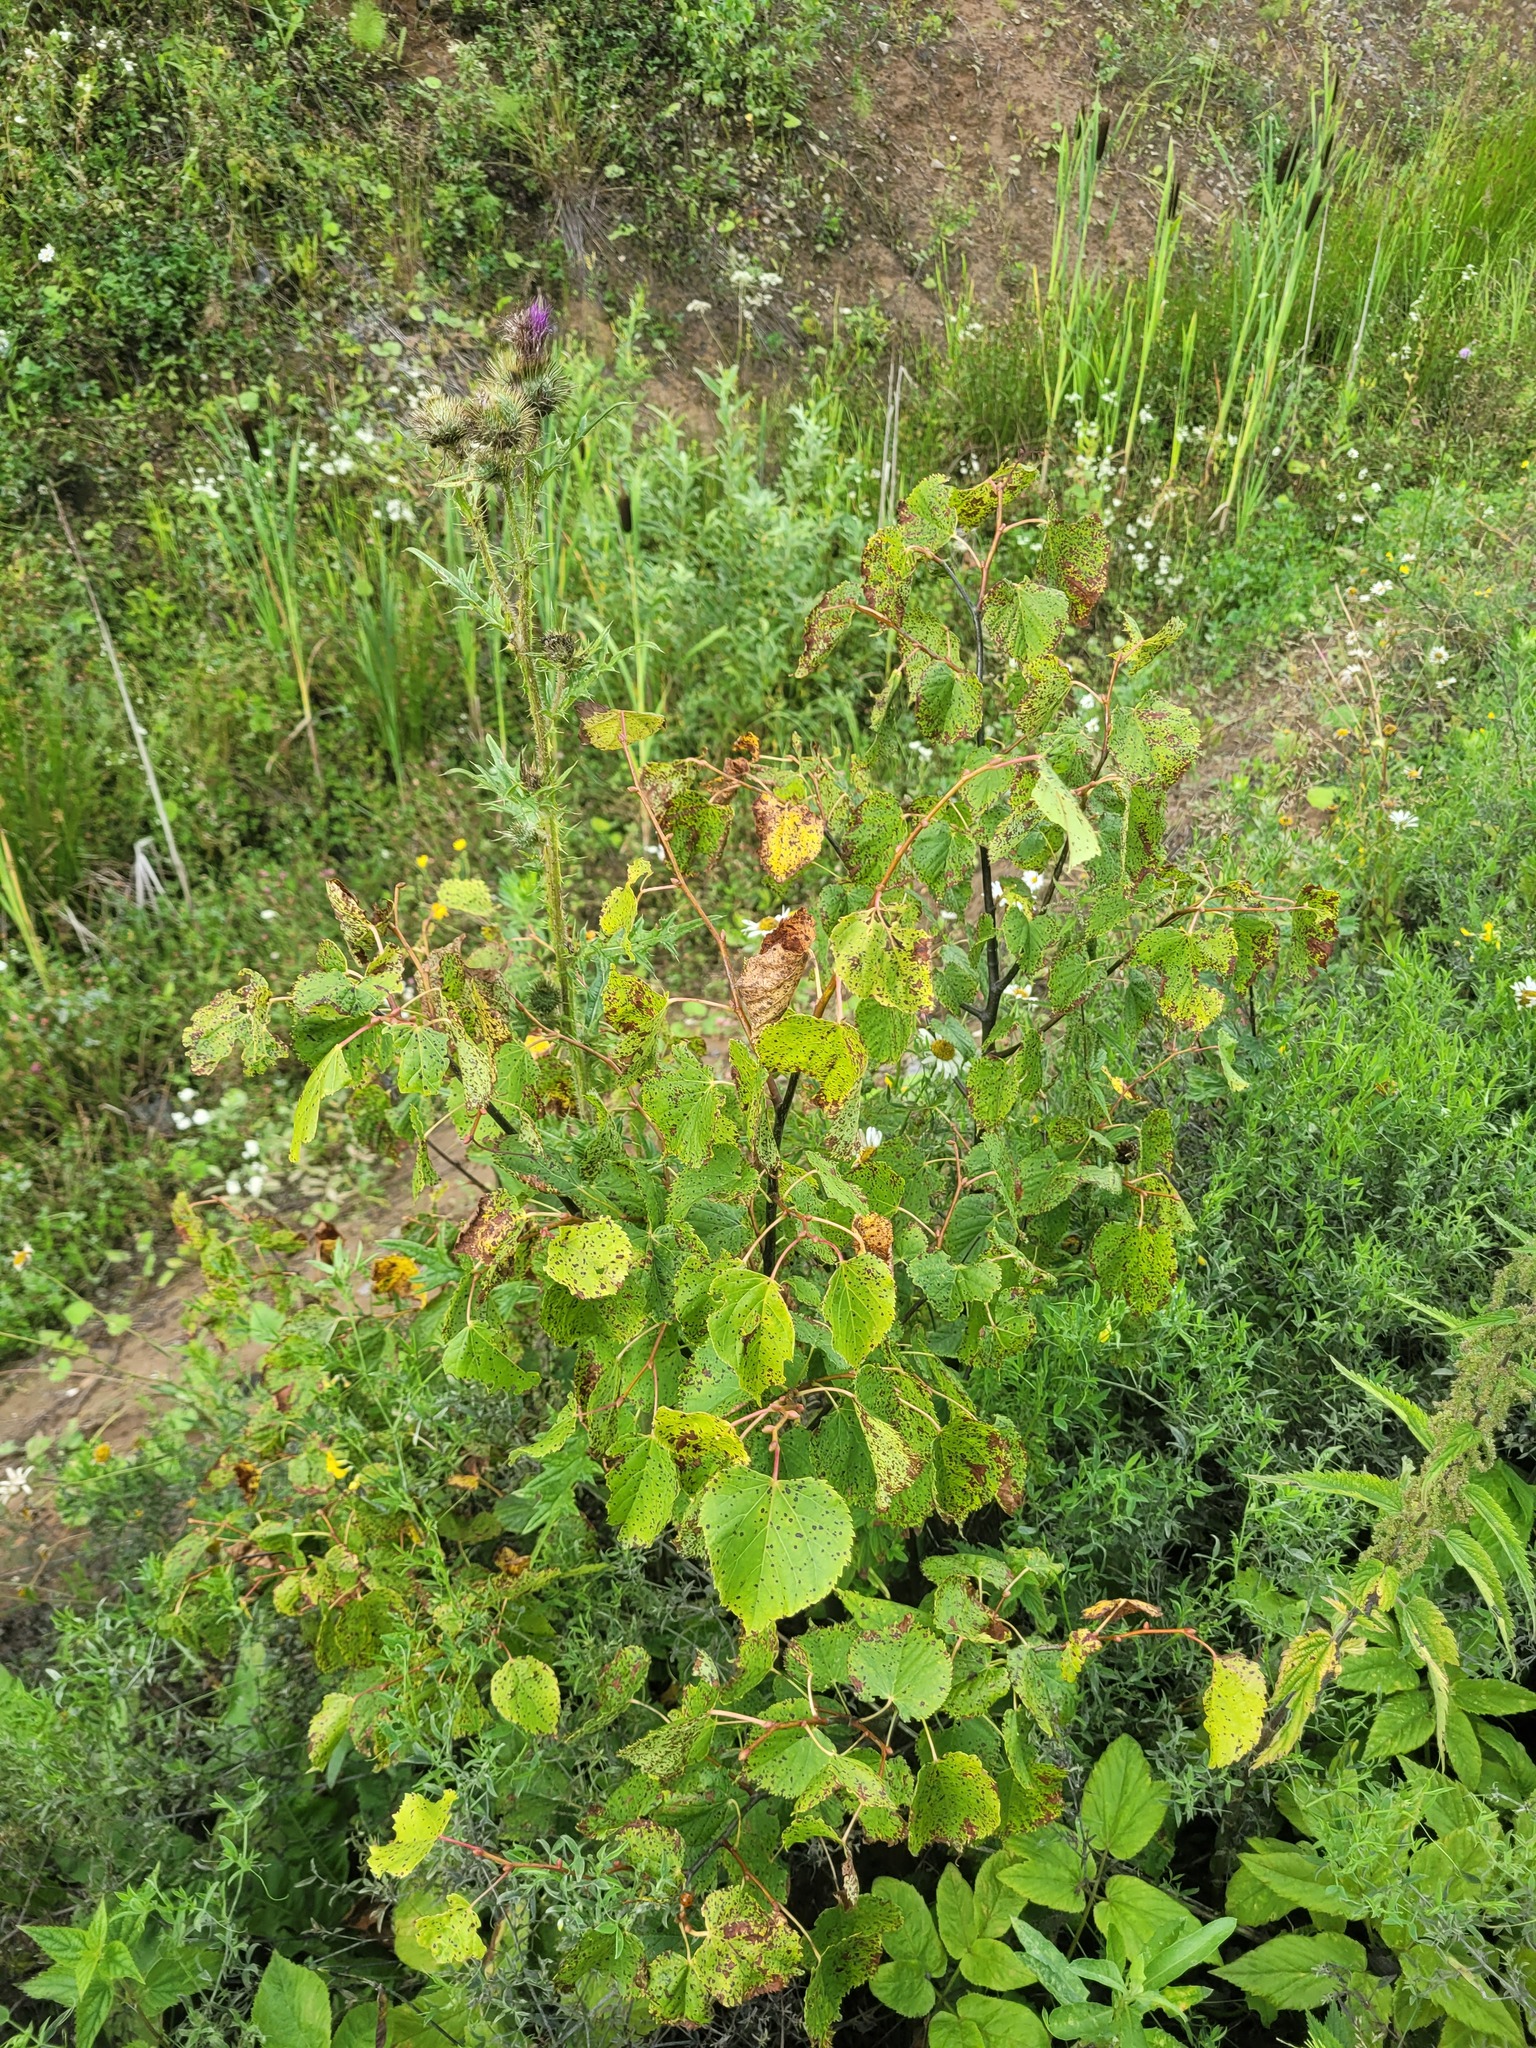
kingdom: Plantae
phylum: Tracheophyta
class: Magnoliopsida
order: Malvales
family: Malvaceae
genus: Tilia
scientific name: Tilia cordata
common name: Small-leaved lime
